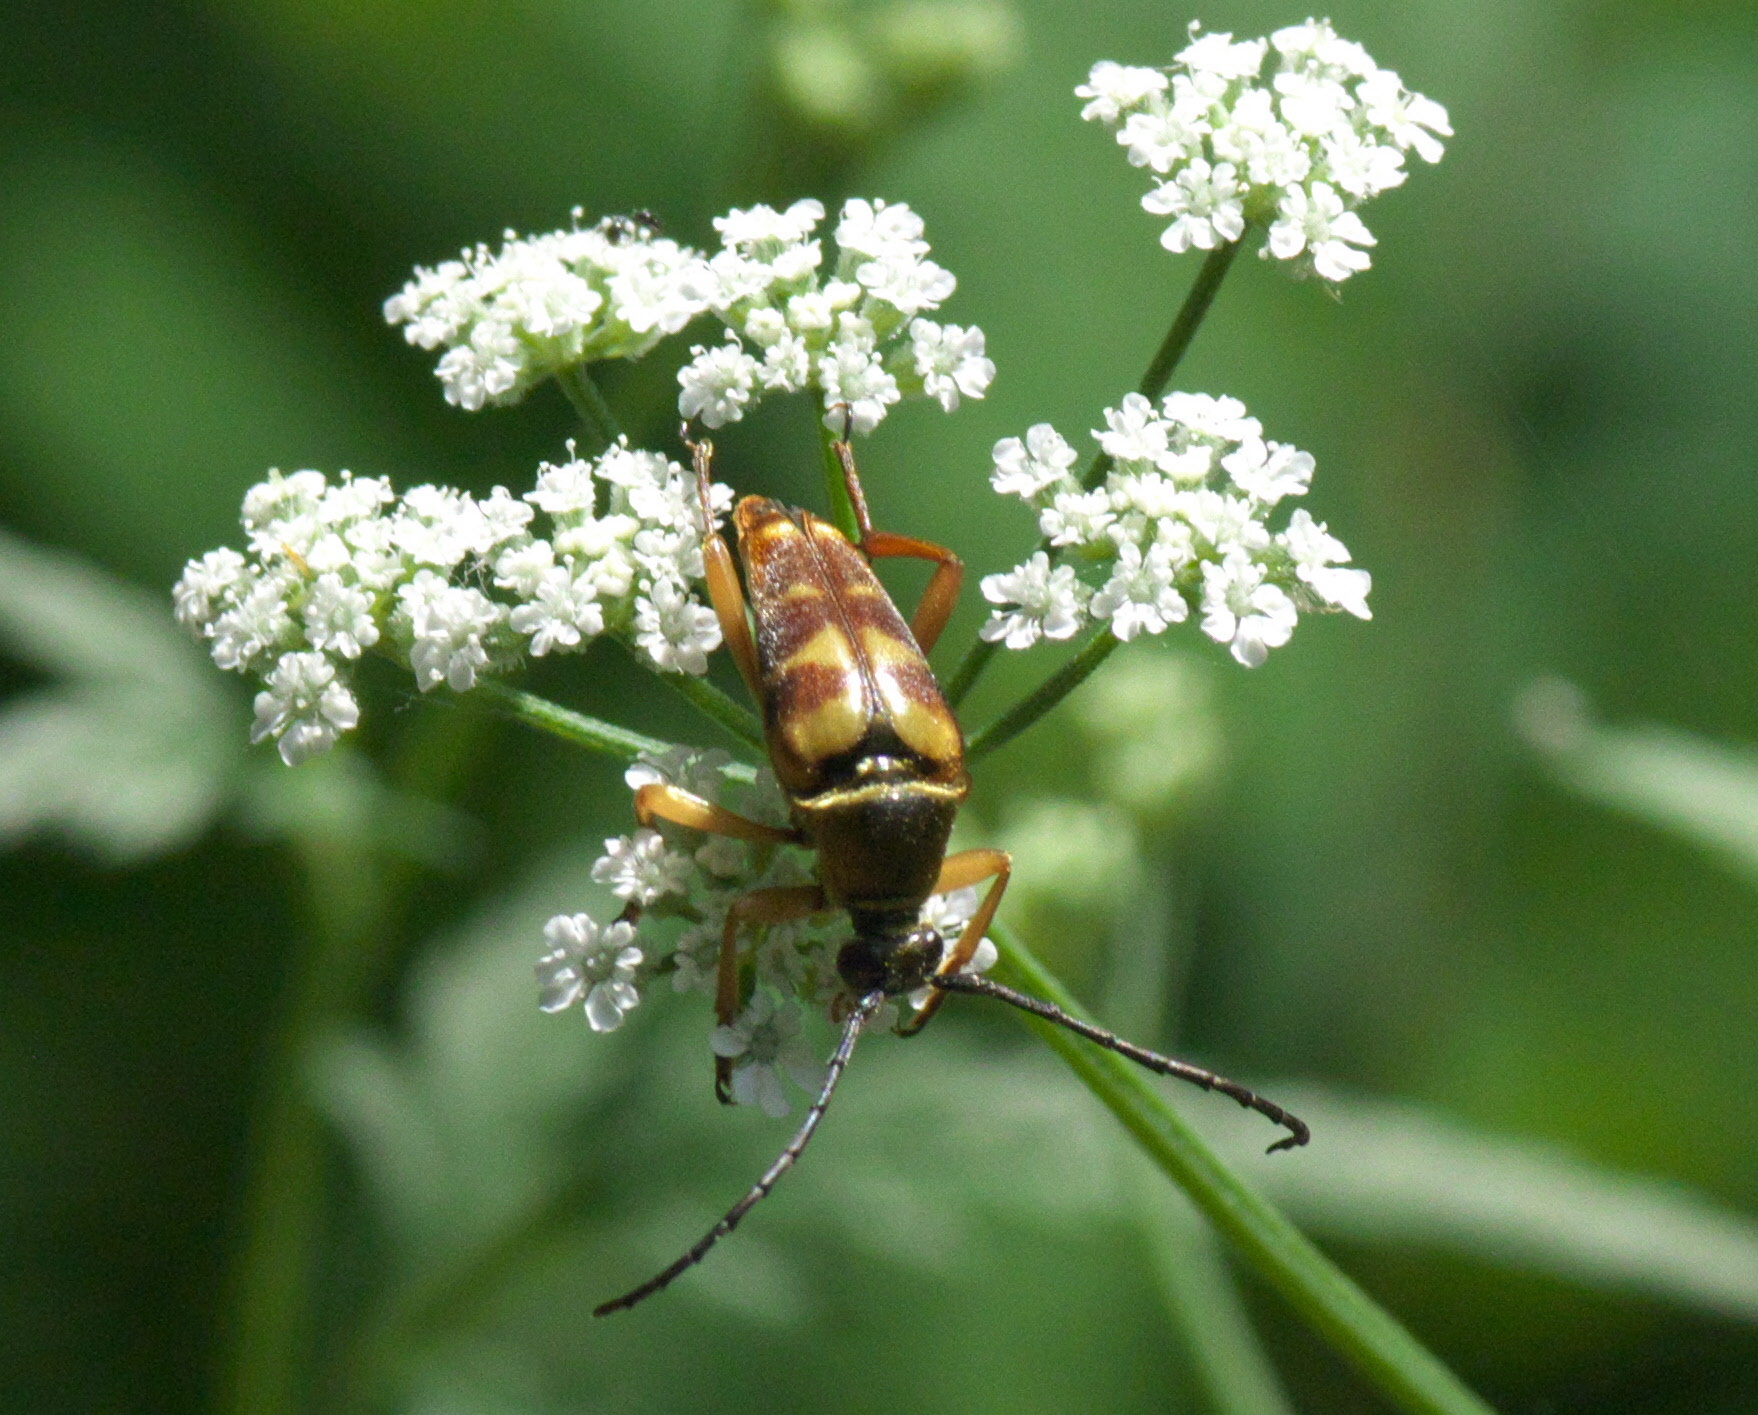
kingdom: Animalia
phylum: Arthropoda
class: Insecta
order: Coleoptera
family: Cerambycidae
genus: Typocerus
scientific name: Typocerus velutinus
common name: Banded longhorn beetle
